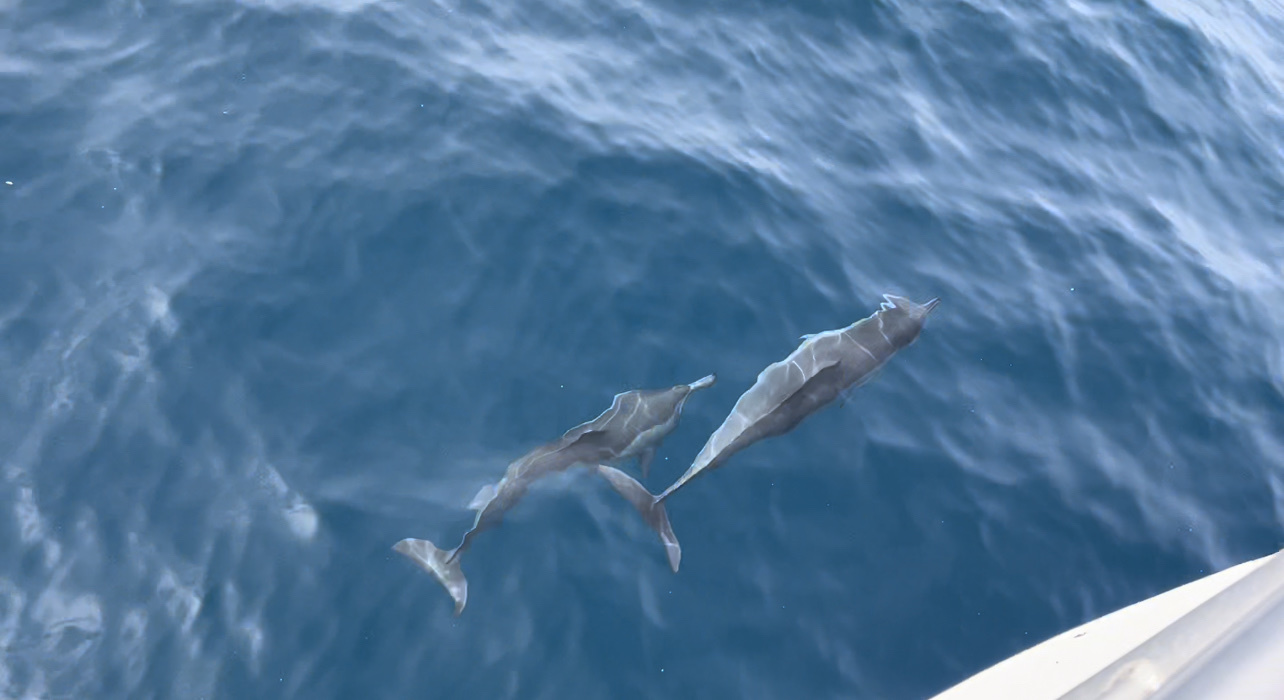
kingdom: Animalia
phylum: Chordata
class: Mammalia
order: Cetacea
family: Delphinidae
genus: Stenella
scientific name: Stenella longirostris
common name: Spinner dolphin
